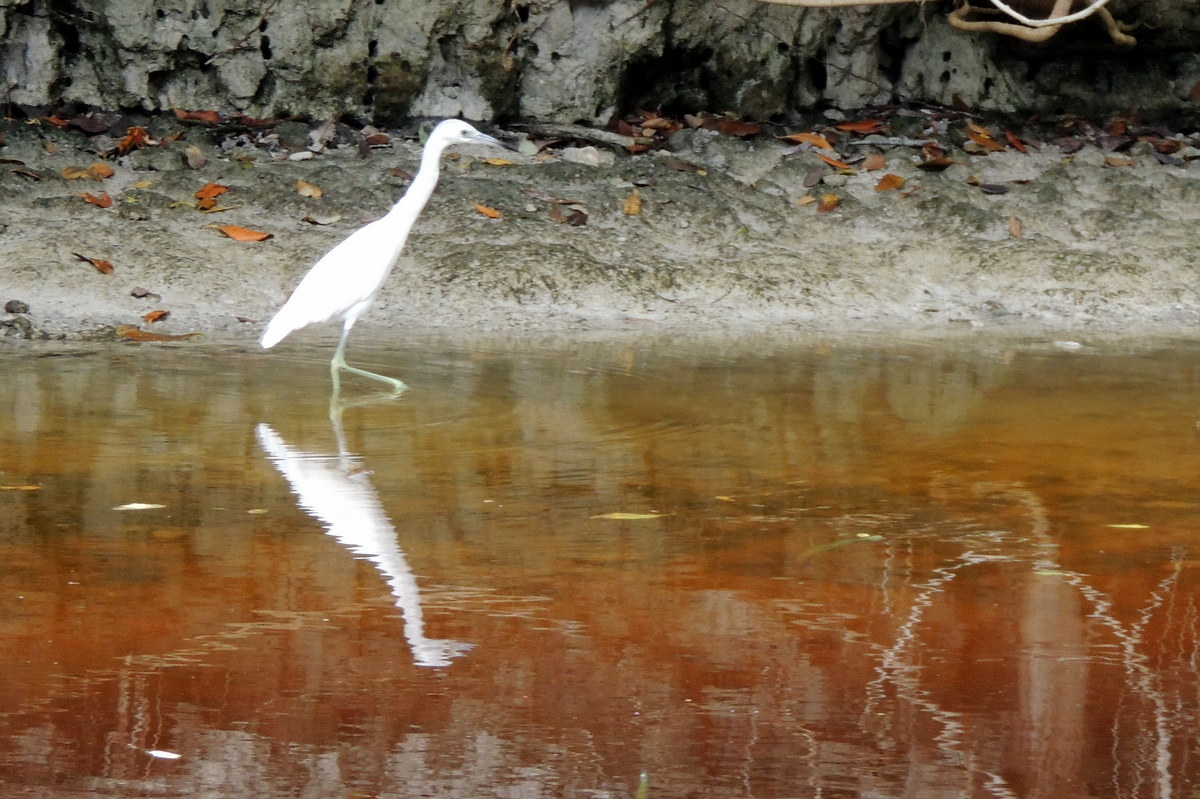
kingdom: Animalia
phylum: Chordata
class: Aves
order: Pelecaniformes
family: Ardeidae
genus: Egretta
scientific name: Egretta caerulea
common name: Little blue heron
